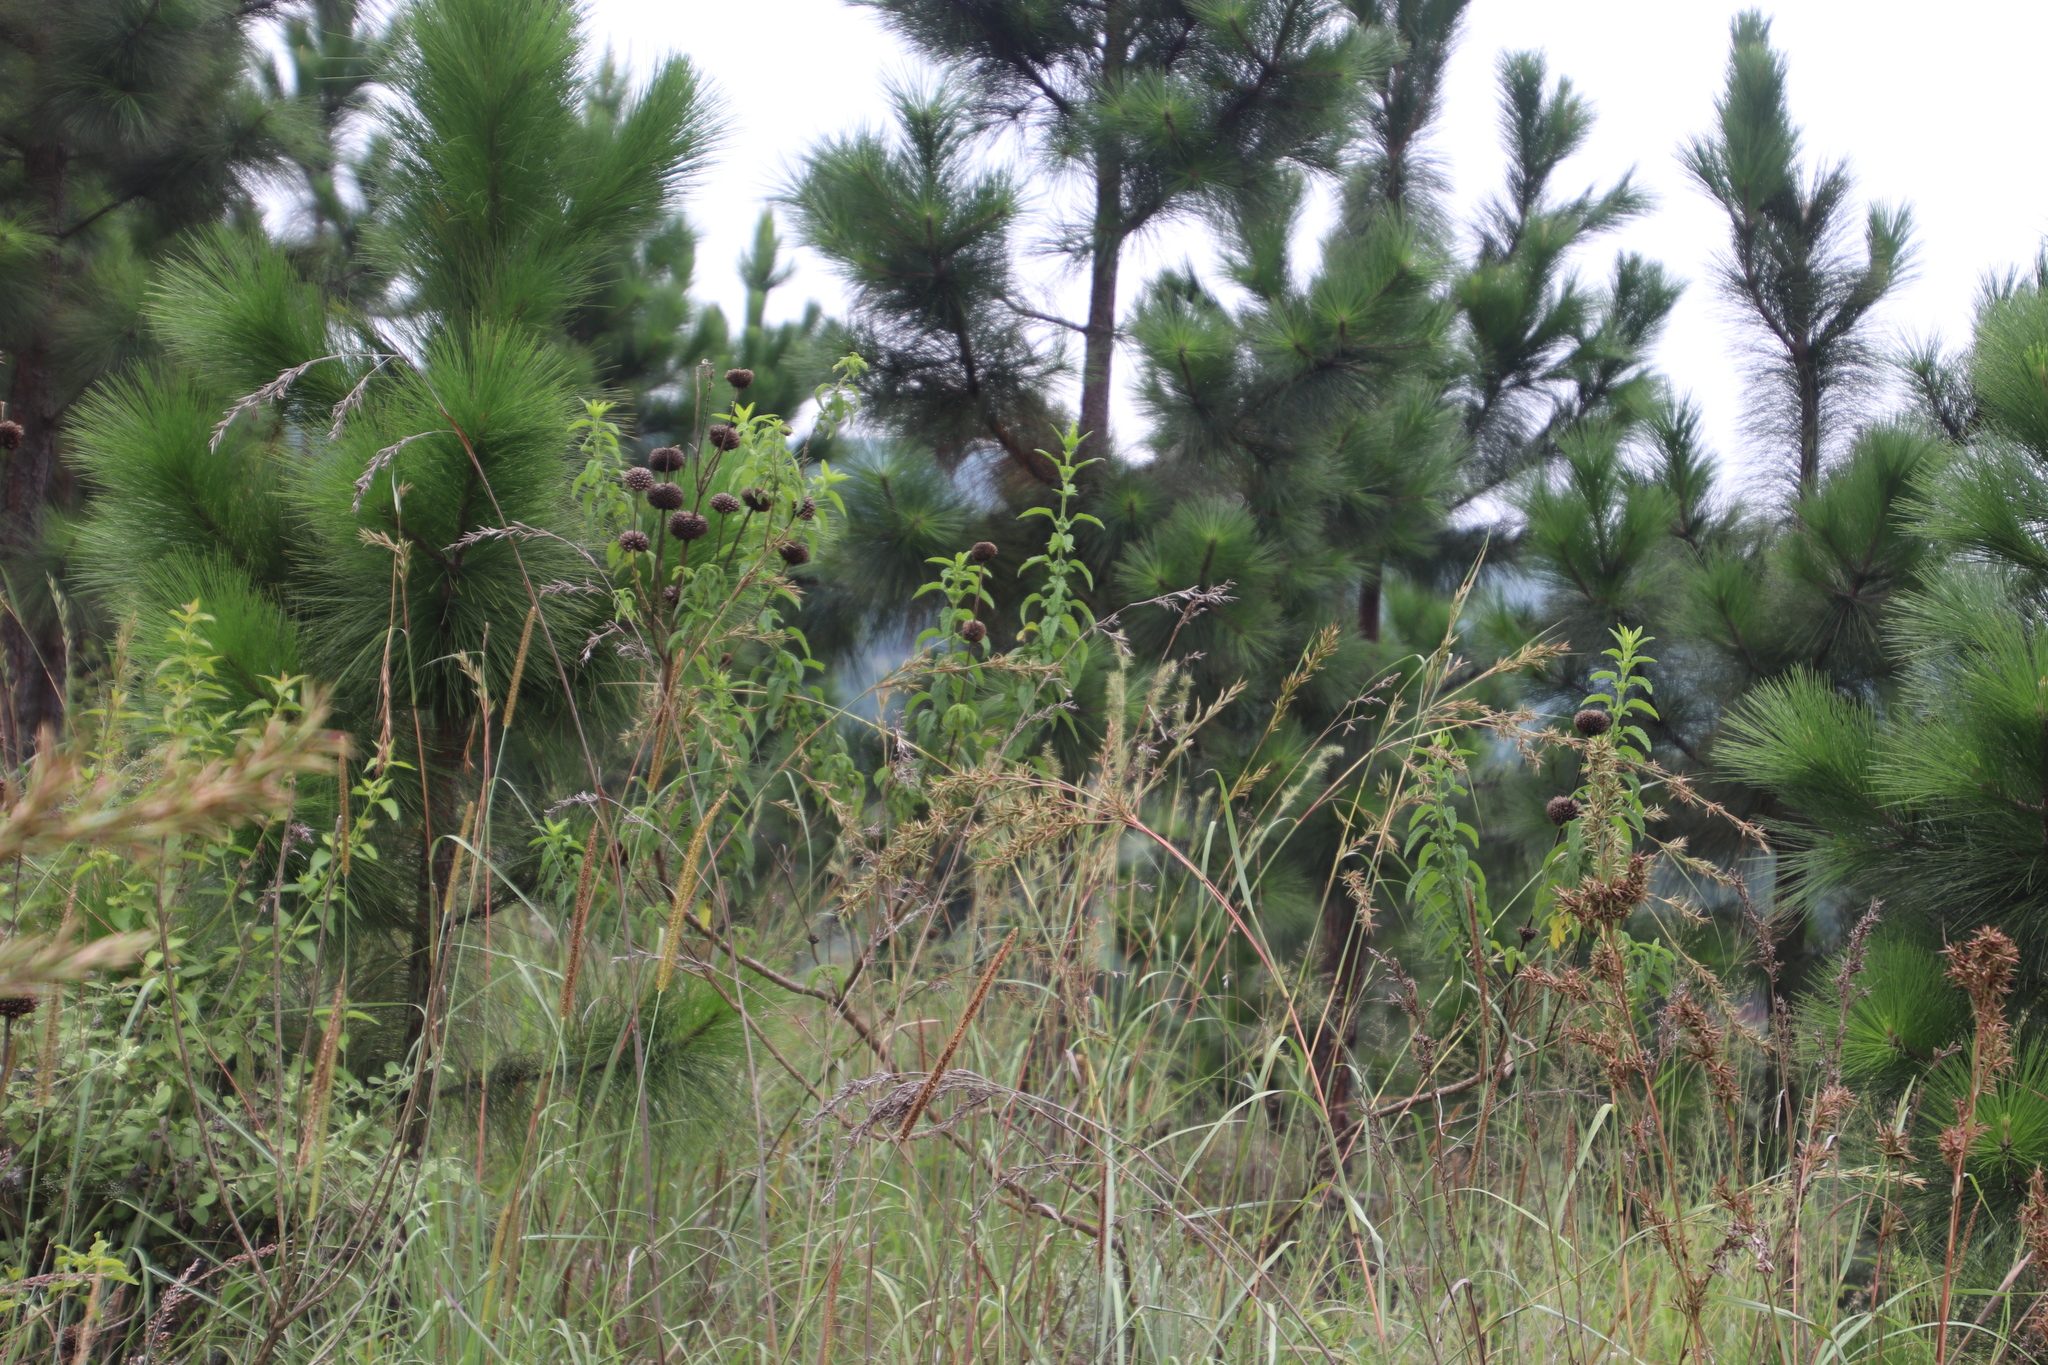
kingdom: Plantae
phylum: Tracheophyta
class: Magnoliopsida
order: Lamiales
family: Lamiaceae
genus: Leonotis
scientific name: Leonotis ocymifolia
